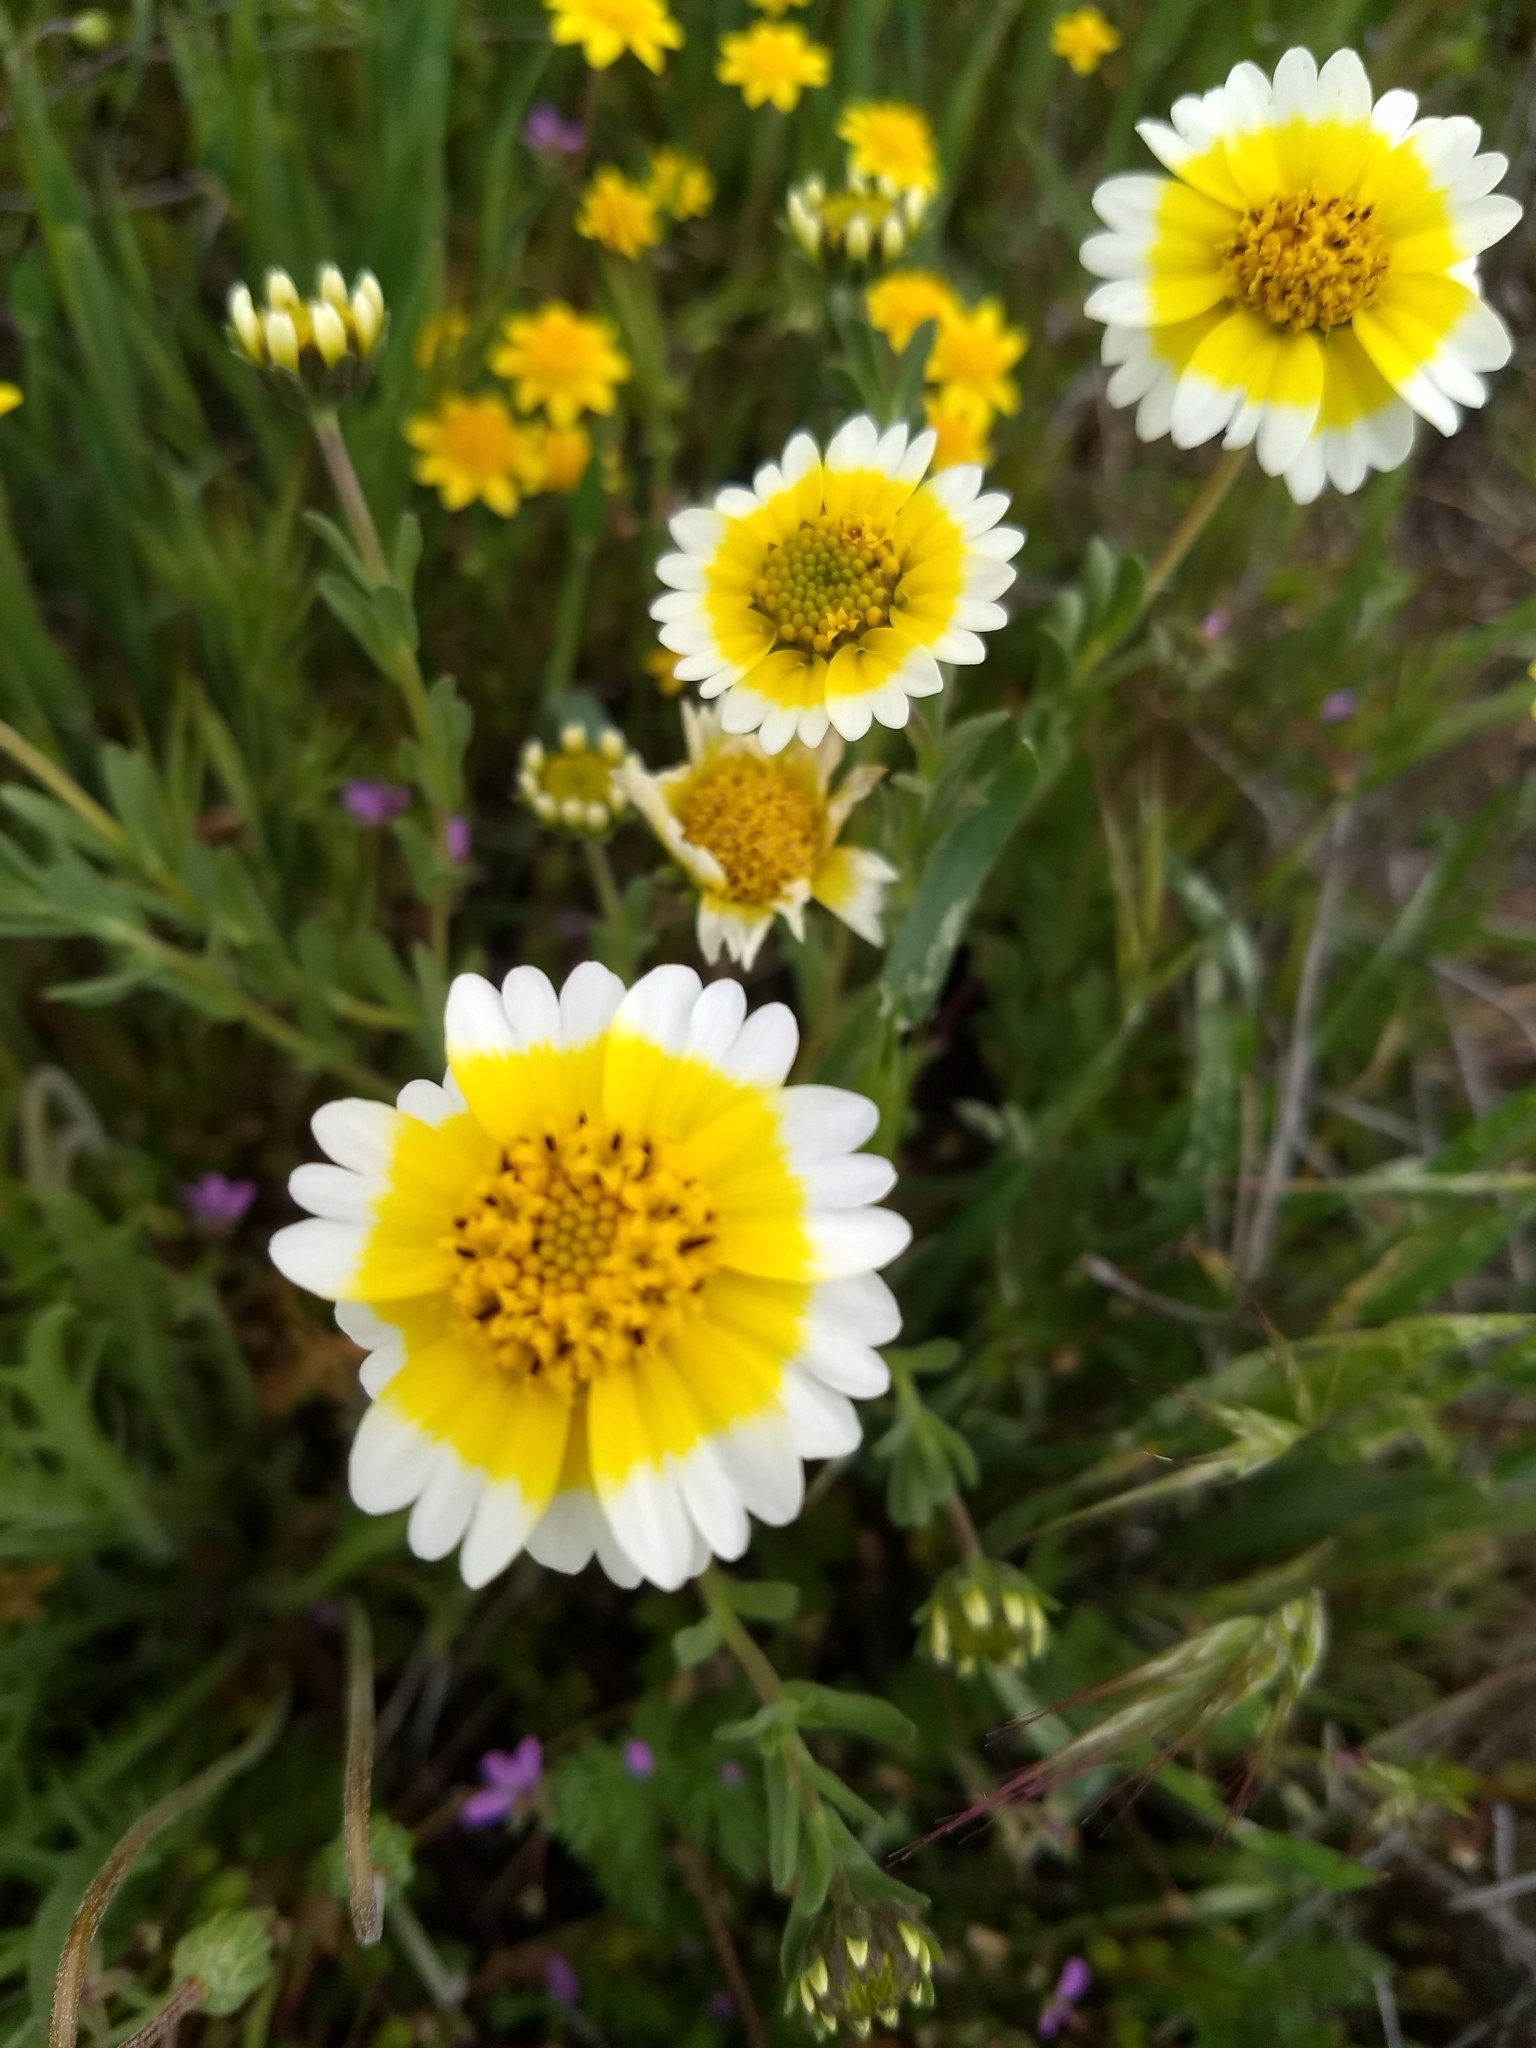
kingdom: Plantae
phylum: Tracheophyta
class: Magnoliopsida
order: Asterales
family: Asteraceae
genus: Layia
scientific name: Layia munzii
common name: Munz's tidy-tips
